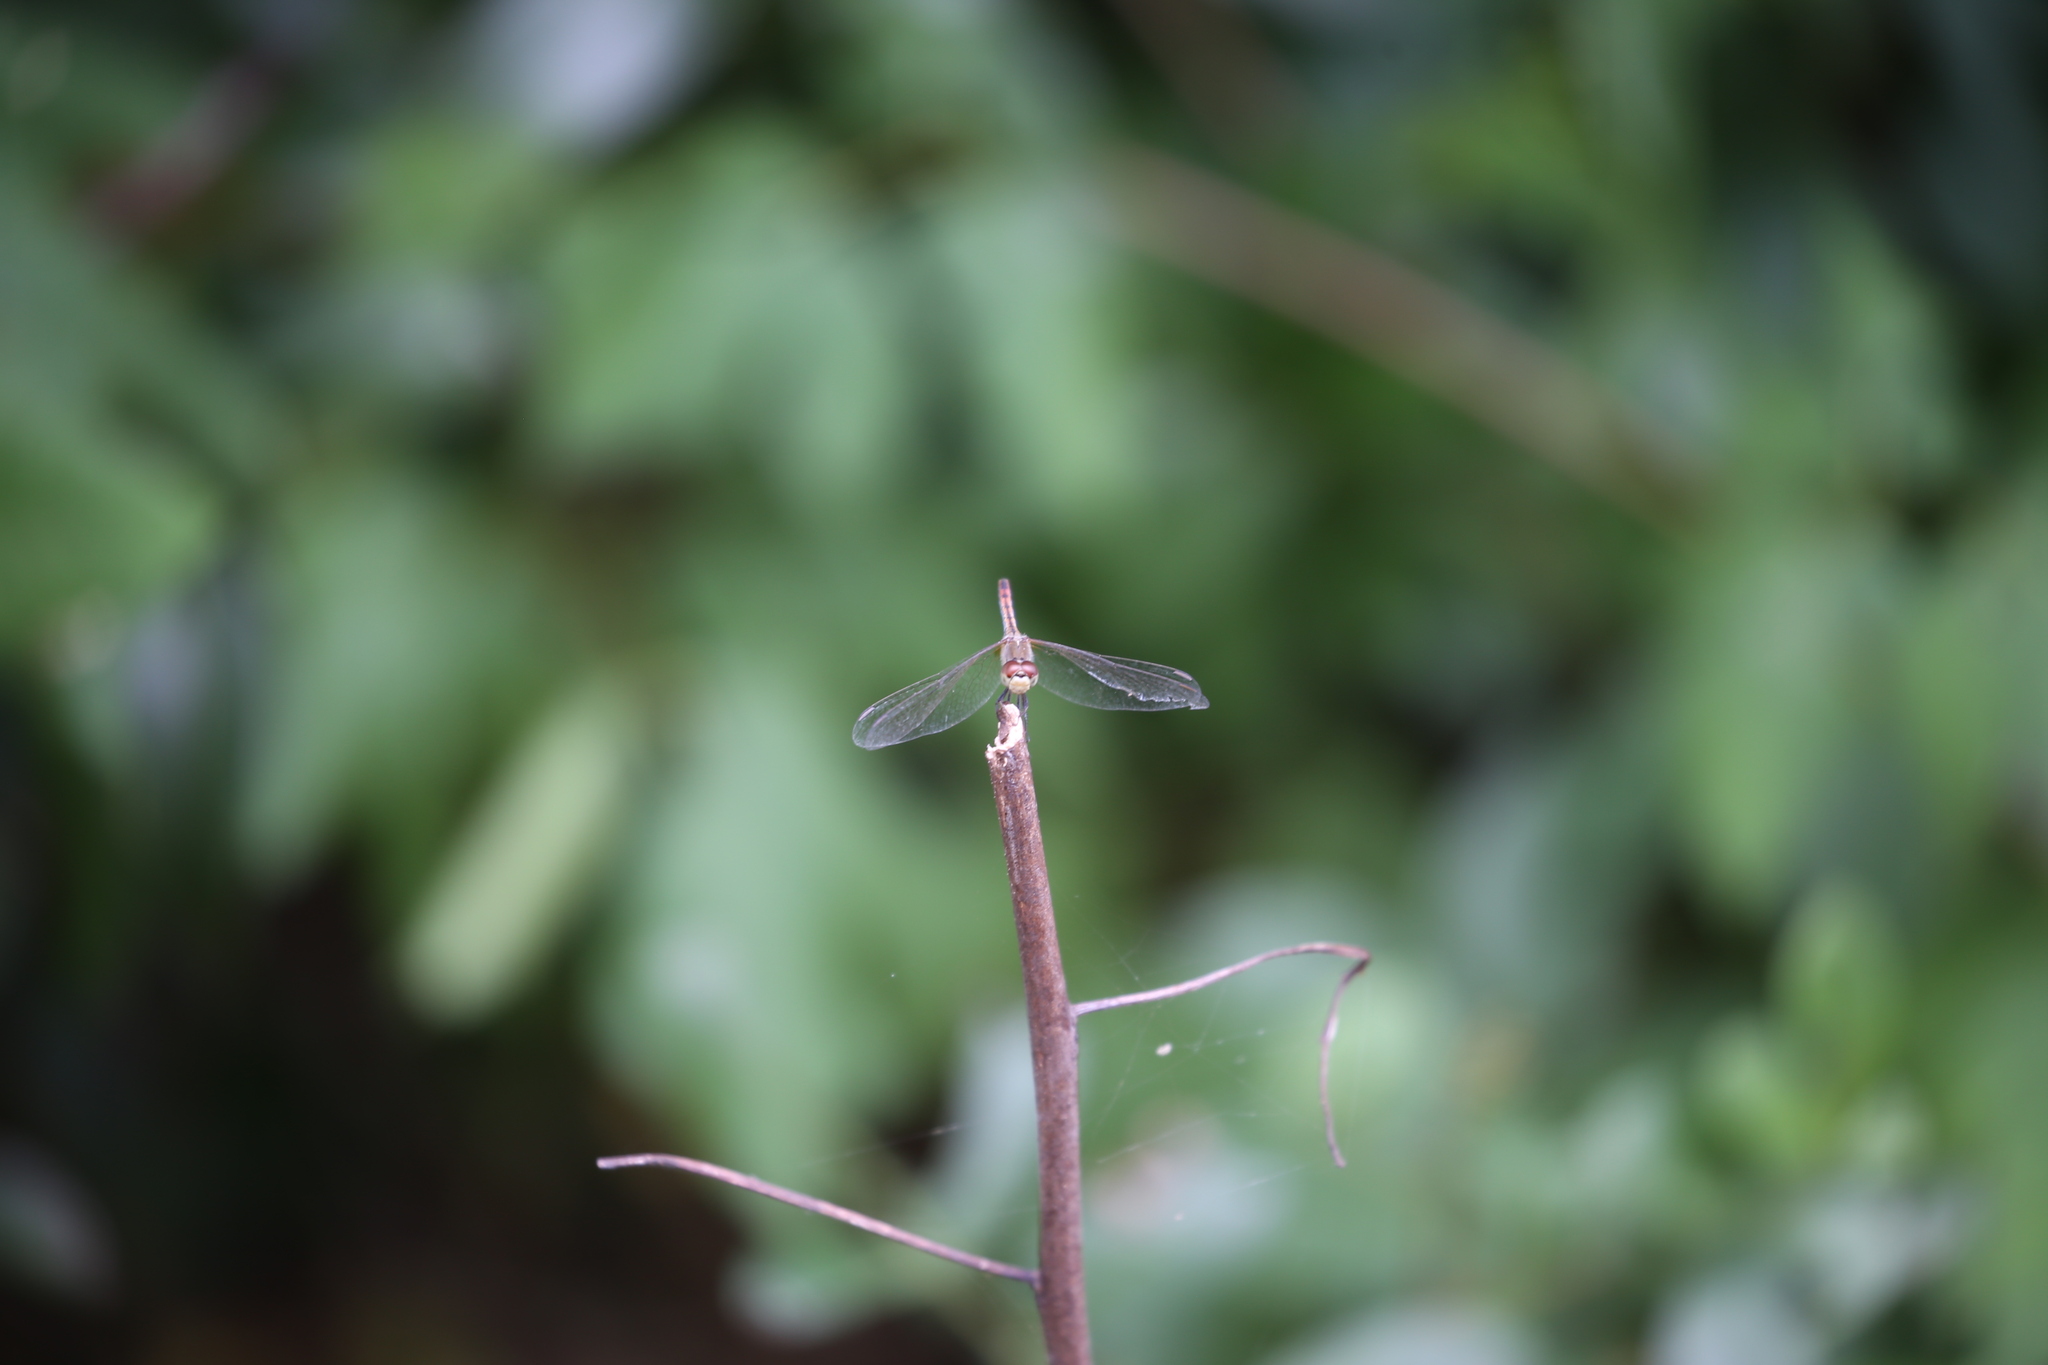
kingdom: Animalia
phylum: Arthropoda
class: Insecta
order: Odonata
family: Libellulidae
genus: Diplacodes
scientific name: Diplacodes bipunctata
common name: Red percher dragonfly
